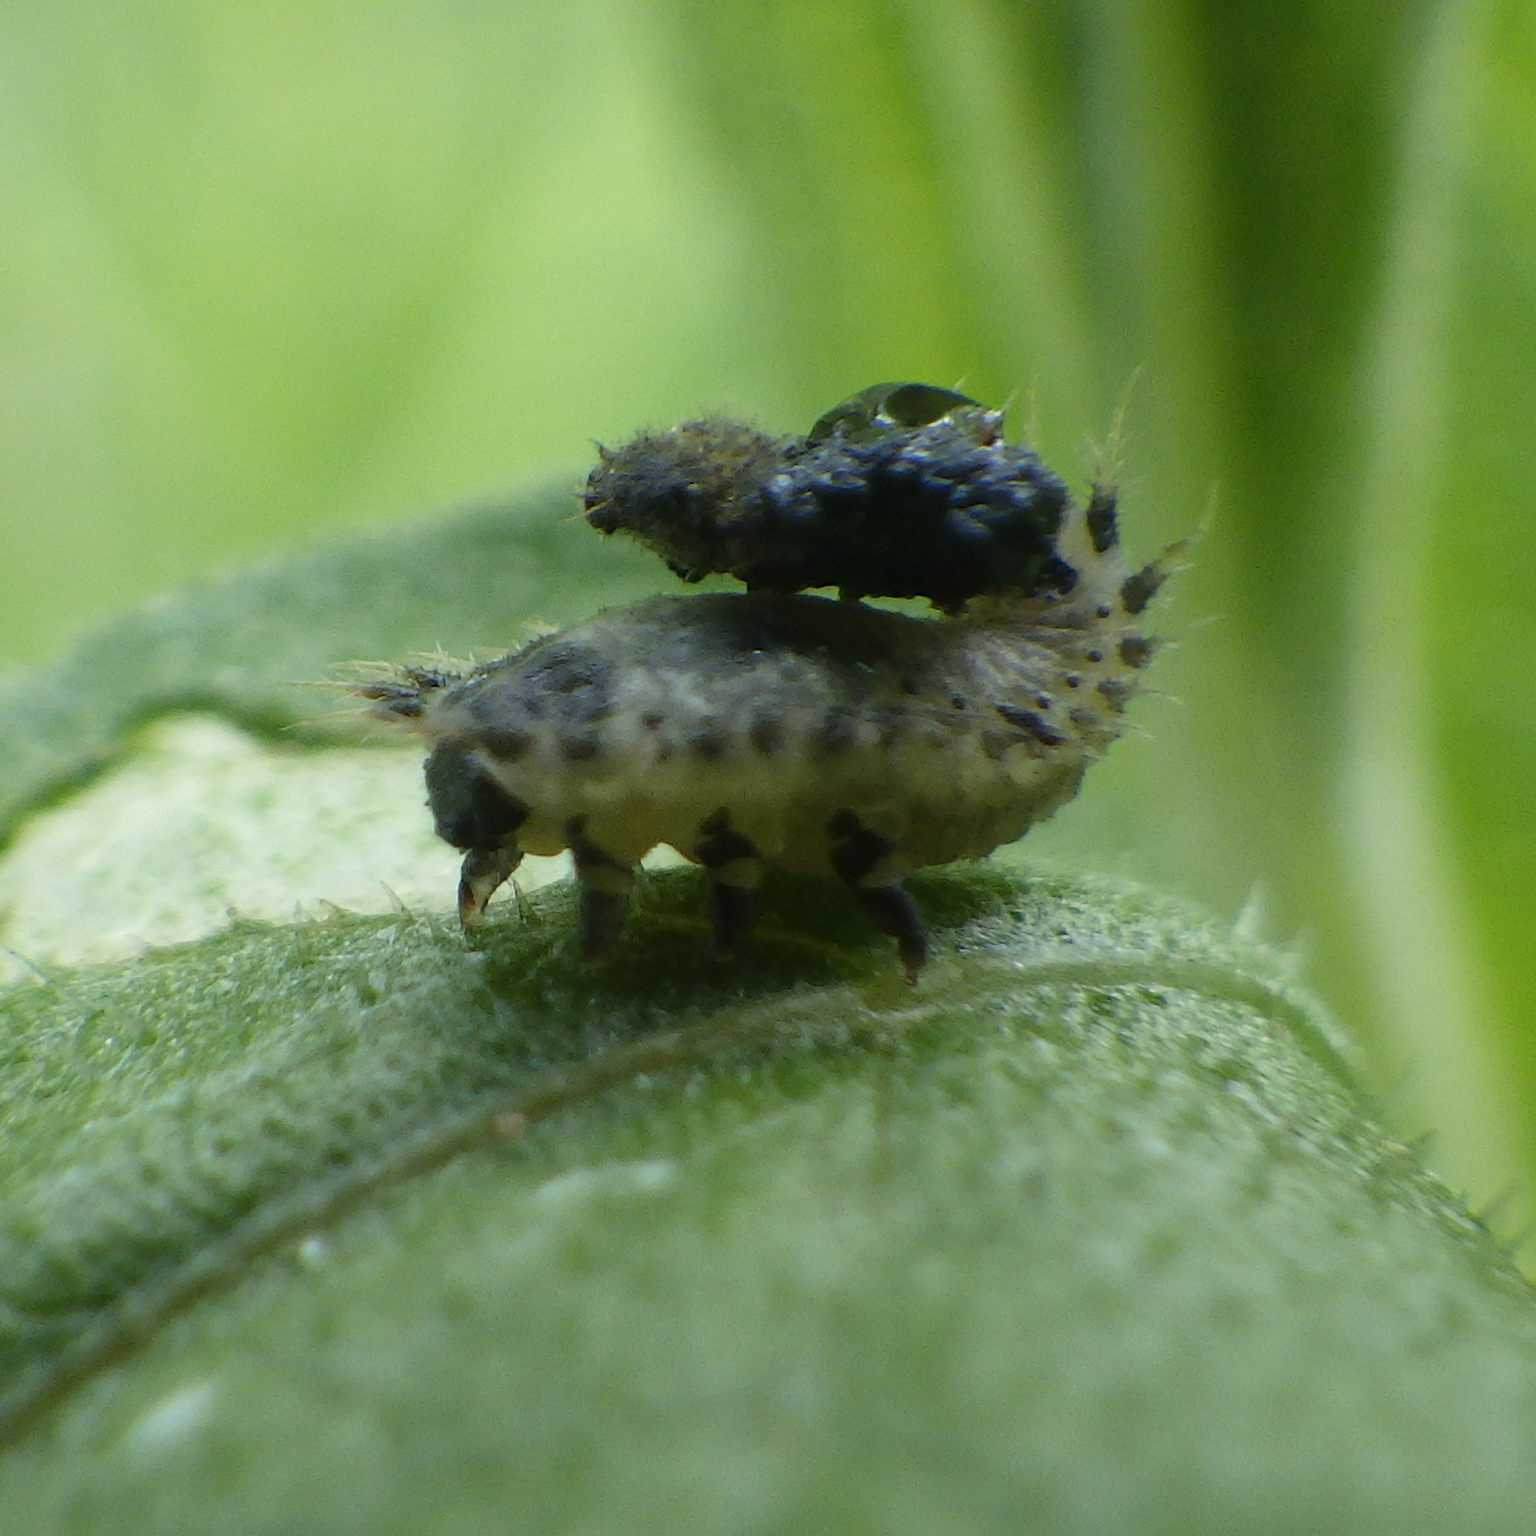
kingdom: Animalia
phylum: Arthropoda
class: Insecta
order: Coleoptera
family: Chrysomelidae
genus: Cassida
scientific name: Cassida rubiginosa
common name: Thistle tortoise beetle
